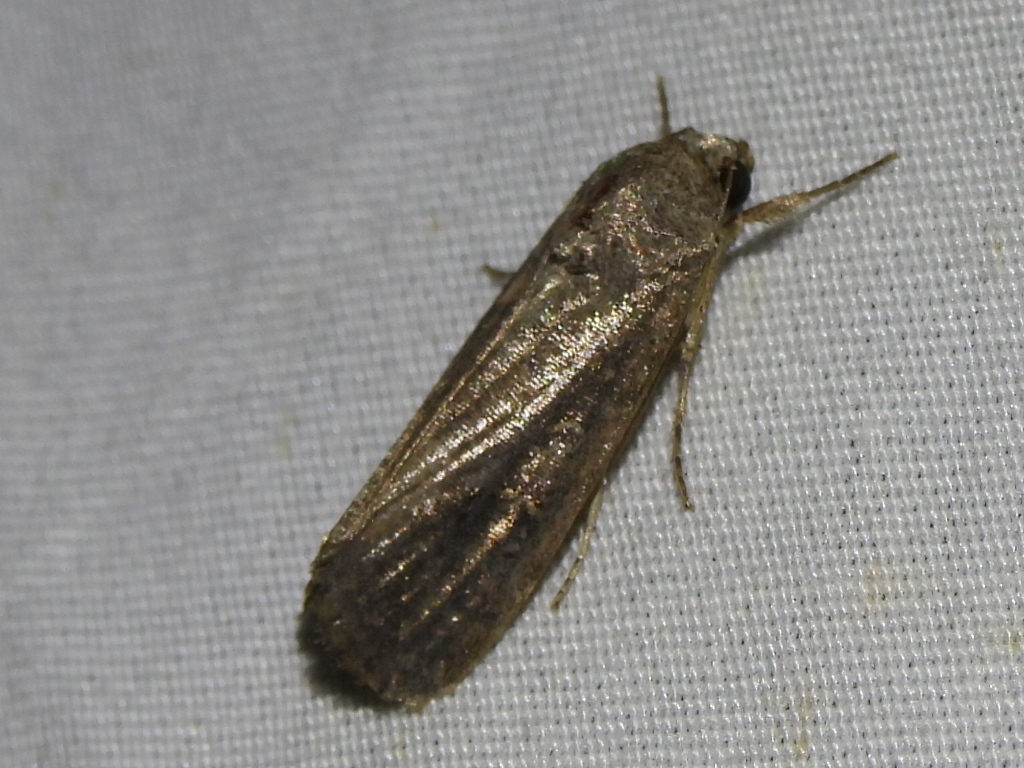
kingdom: Animalia
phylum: Arthropoda
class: Insecta
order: Lepidoptera
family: Noctuidae
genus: Spodoptera
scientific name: Spodoptera frugiperda
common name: Fall armyworm
